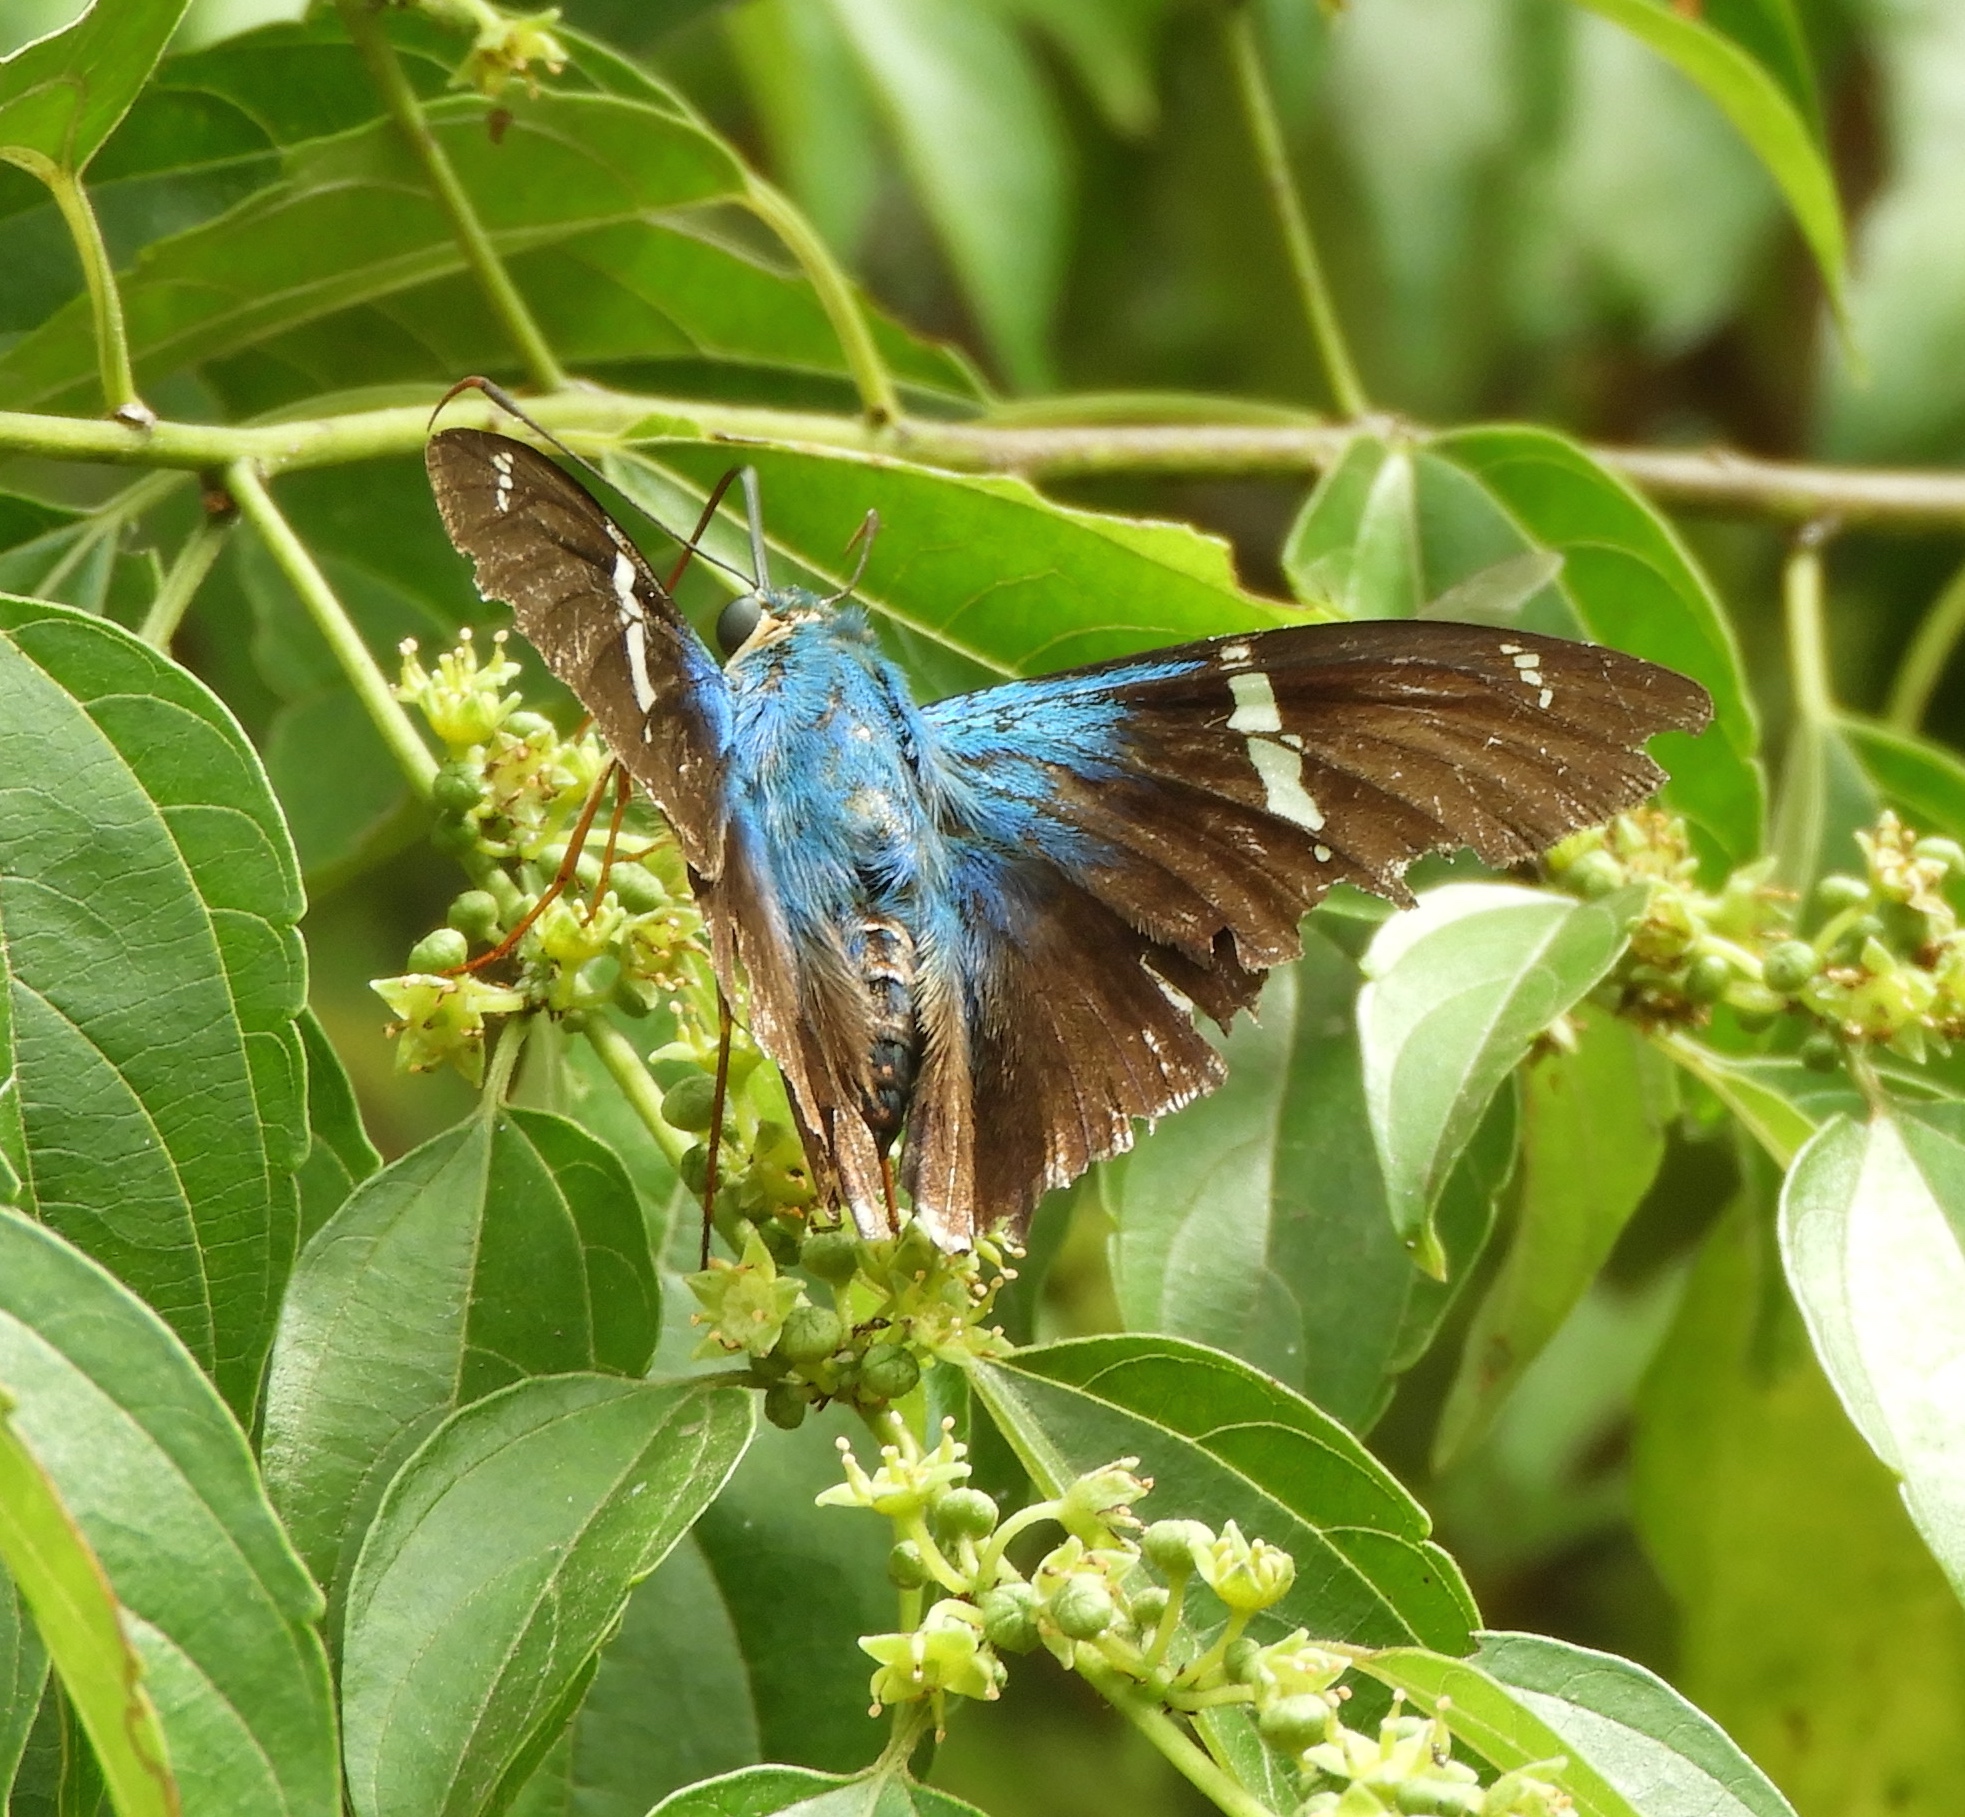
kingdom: Animalia
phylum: Arthropoda
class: Insecta
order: Lepidoptera
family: Hesperiidae
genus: Astraptes
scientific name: Astraptes fulgerator
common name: Two-barred flasher
